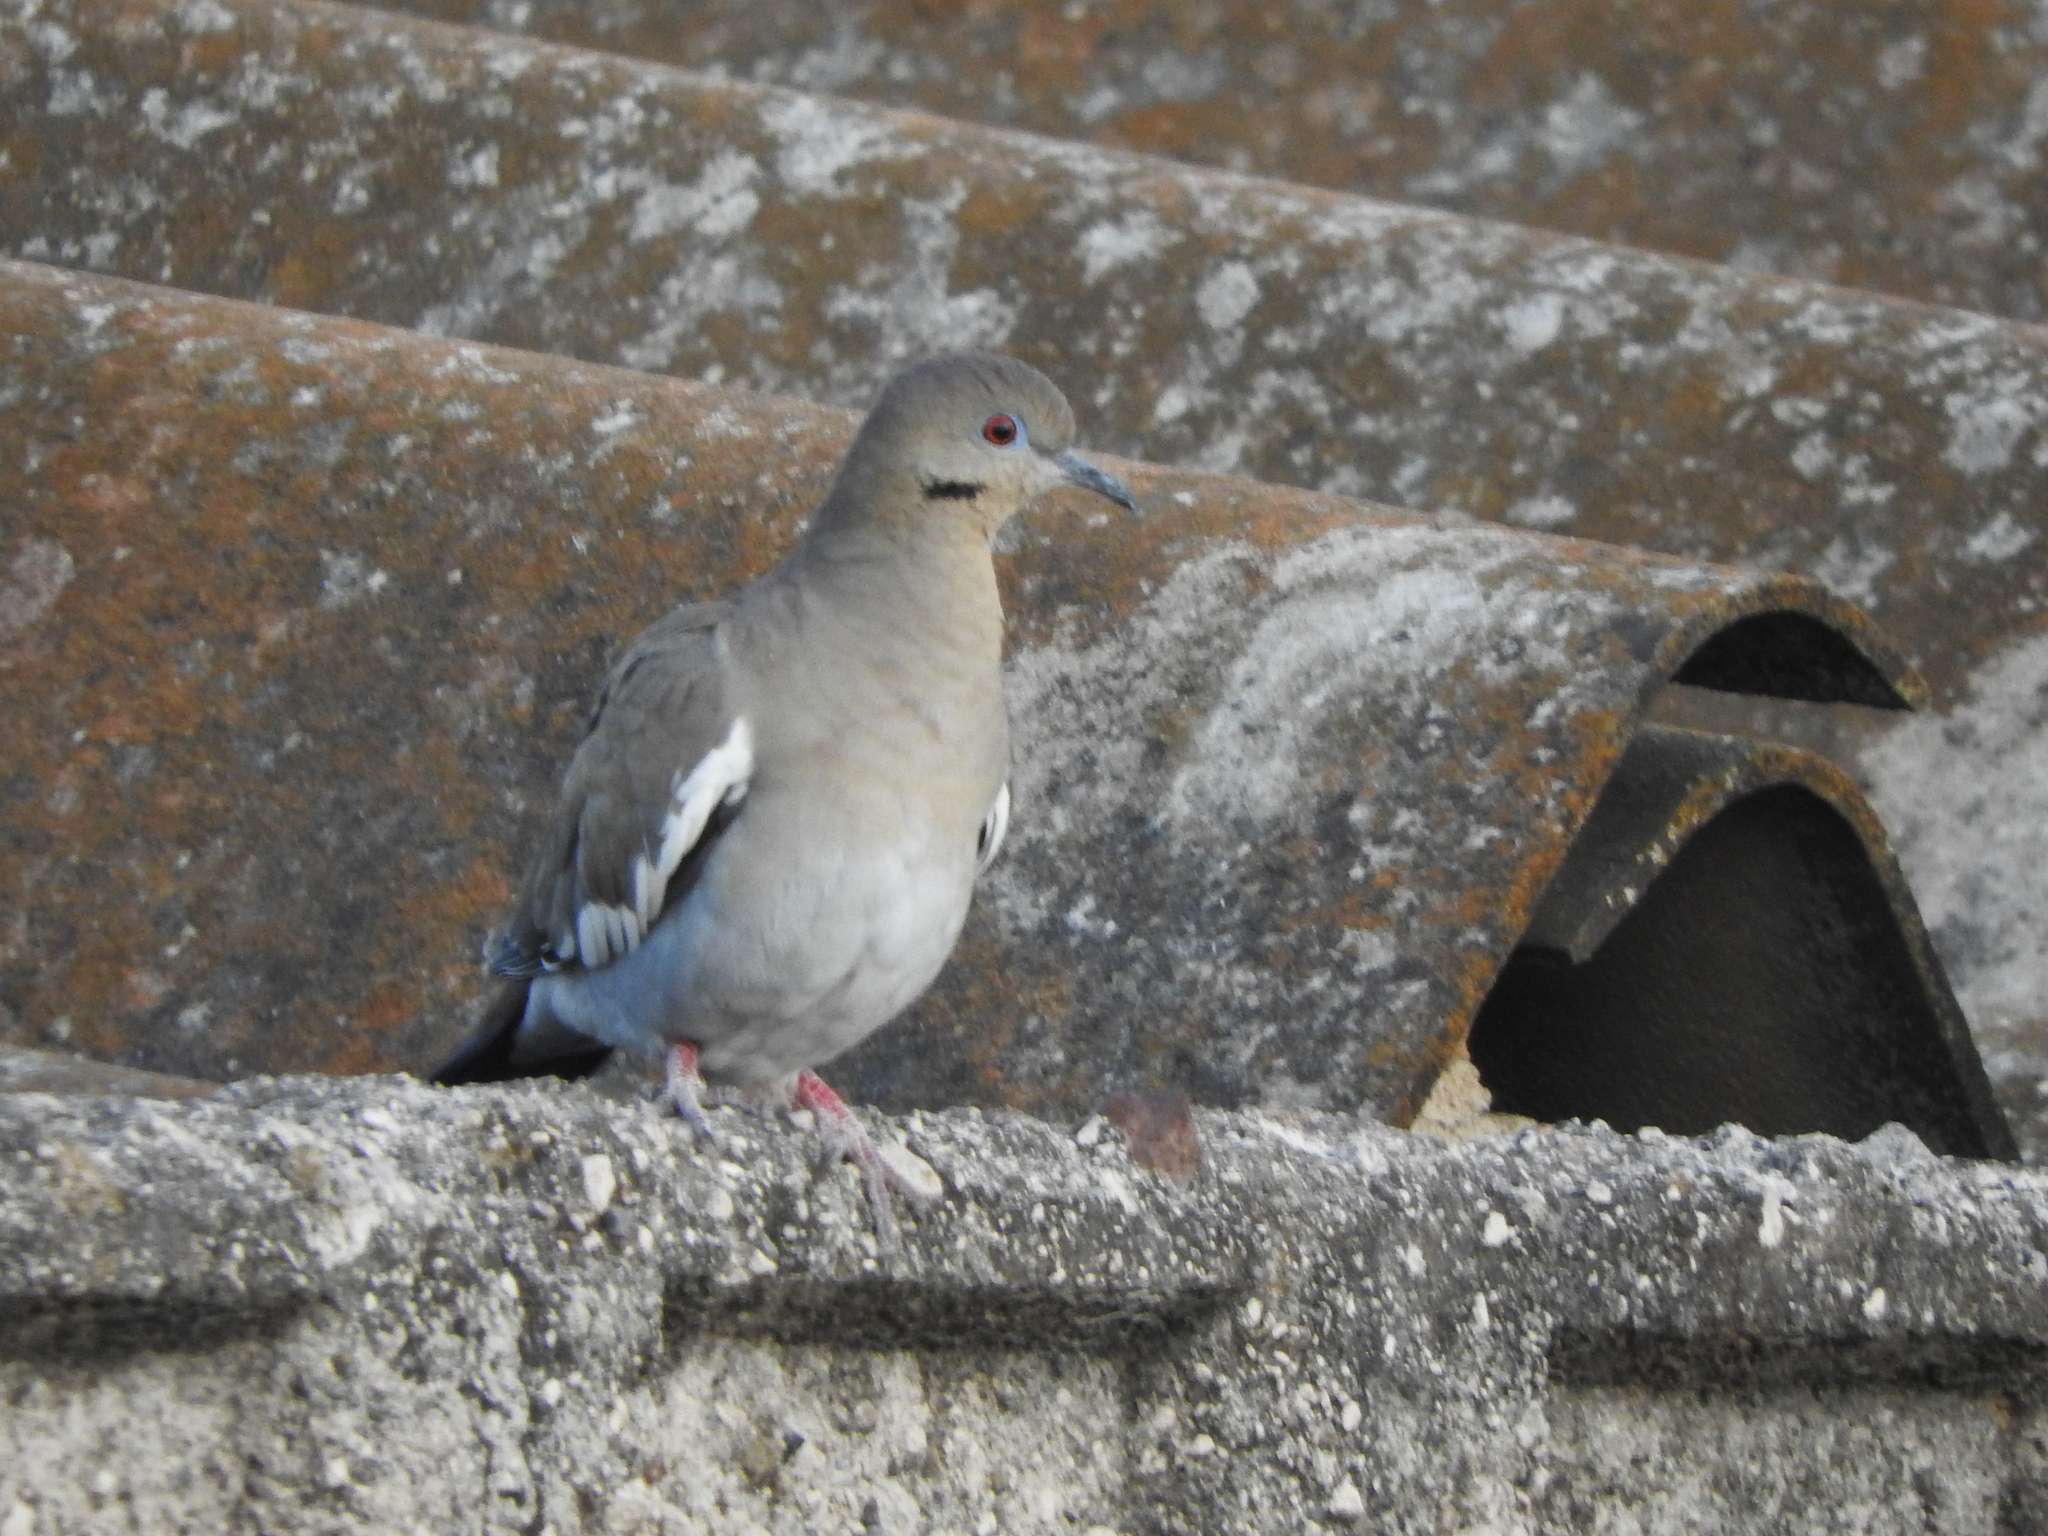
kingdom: Animalia
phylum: Chordata
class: Aves
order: Columbiformes
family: Columbidae
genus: Zenaida
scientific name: Zenaida asiatica
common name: White-winged dove
